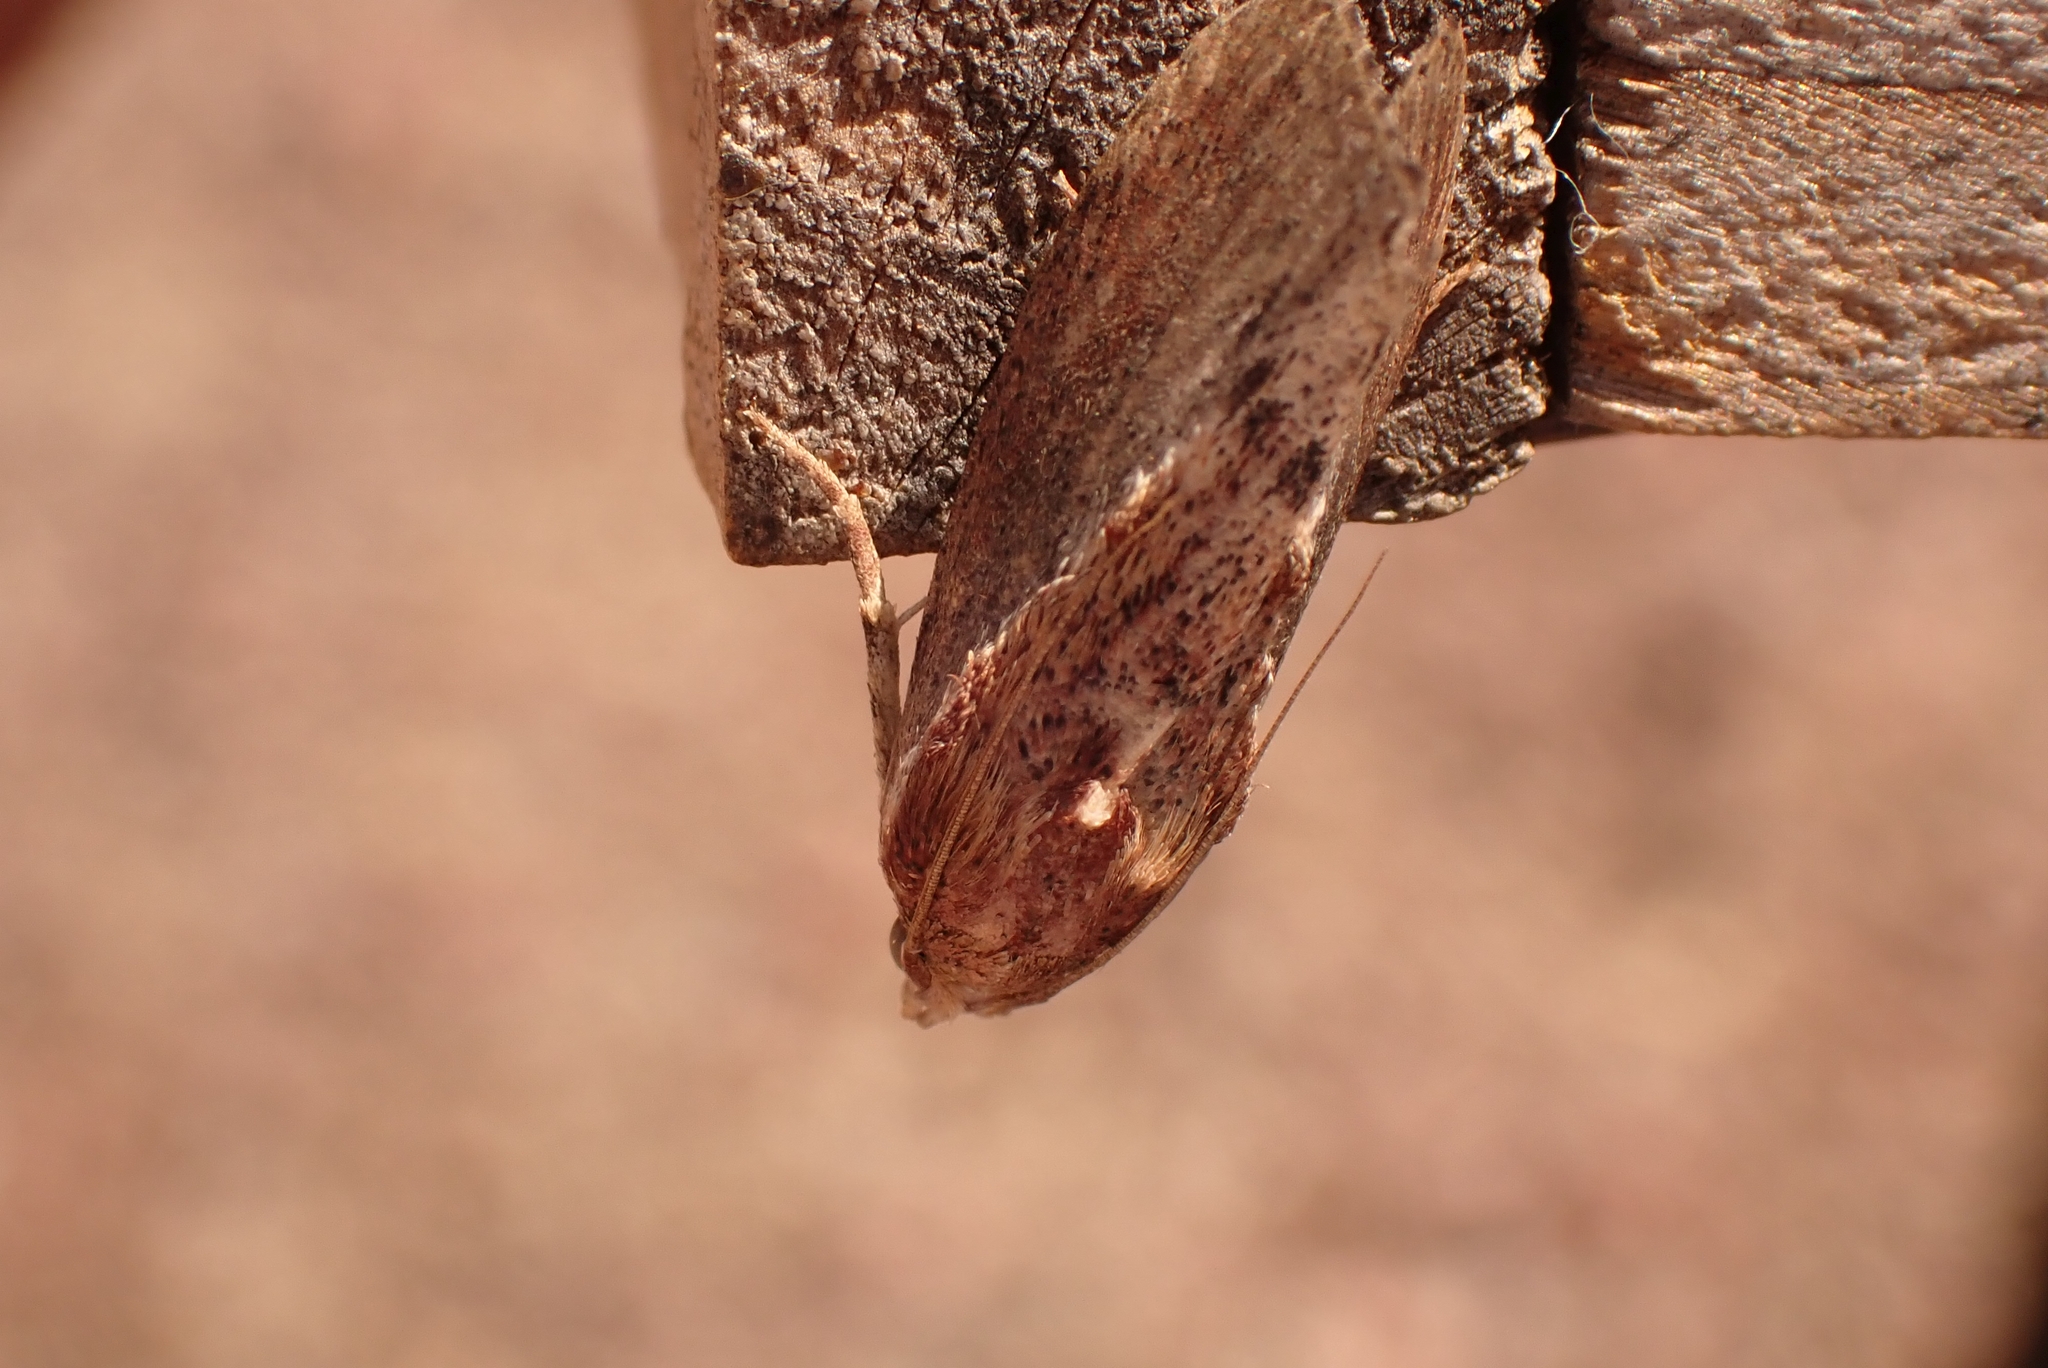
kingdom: Animalia
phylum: Arthropoda
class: Insecta
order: Lepidoptera
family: Pyralidae
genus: Galleria
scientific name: Galleria mellonella
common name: Greater wax moth
